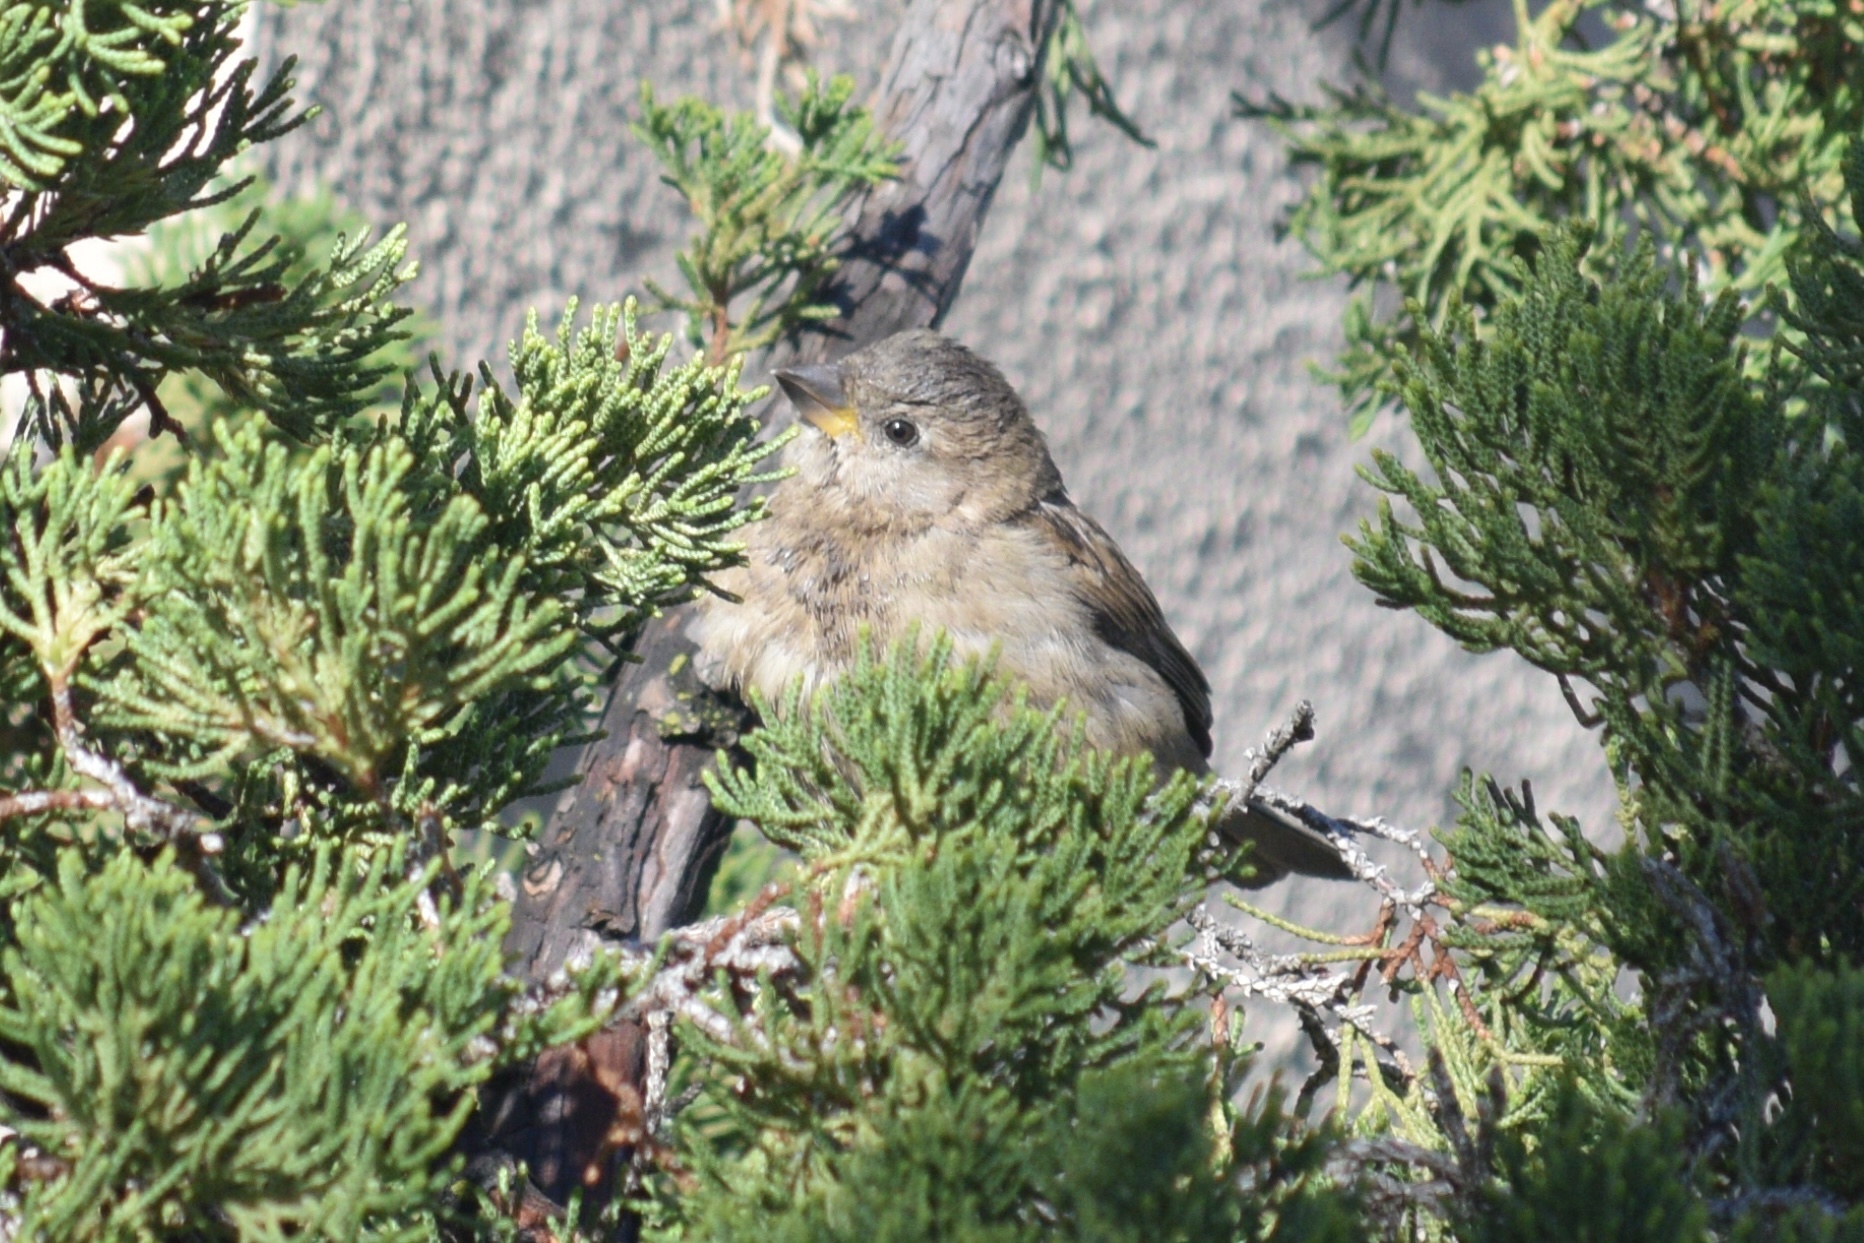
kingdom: Animalia
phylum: Chordata
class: Aves
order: Passeriformes
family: Passeridae
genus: Passer
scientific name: Passer domesticus
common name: House sparrow
